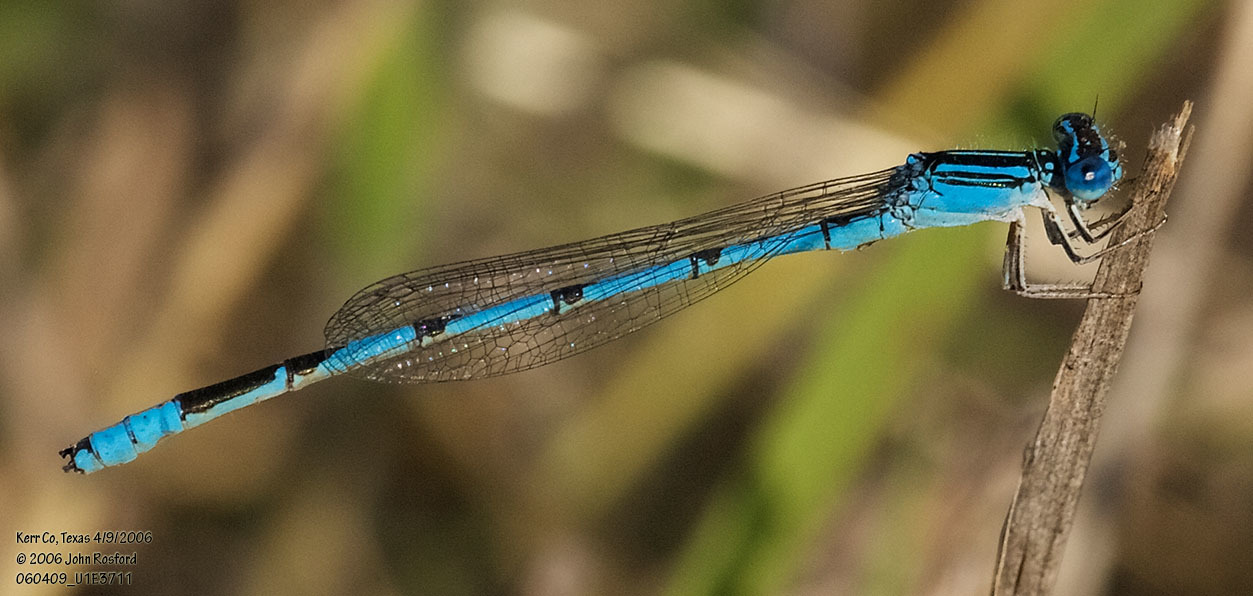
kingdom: Animalia
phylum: Arthropoda
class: Insecta
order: Odonata
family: Coenagrionidae
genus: Enallagma
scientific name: Enallagma basidens
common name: Double-striped bluet
